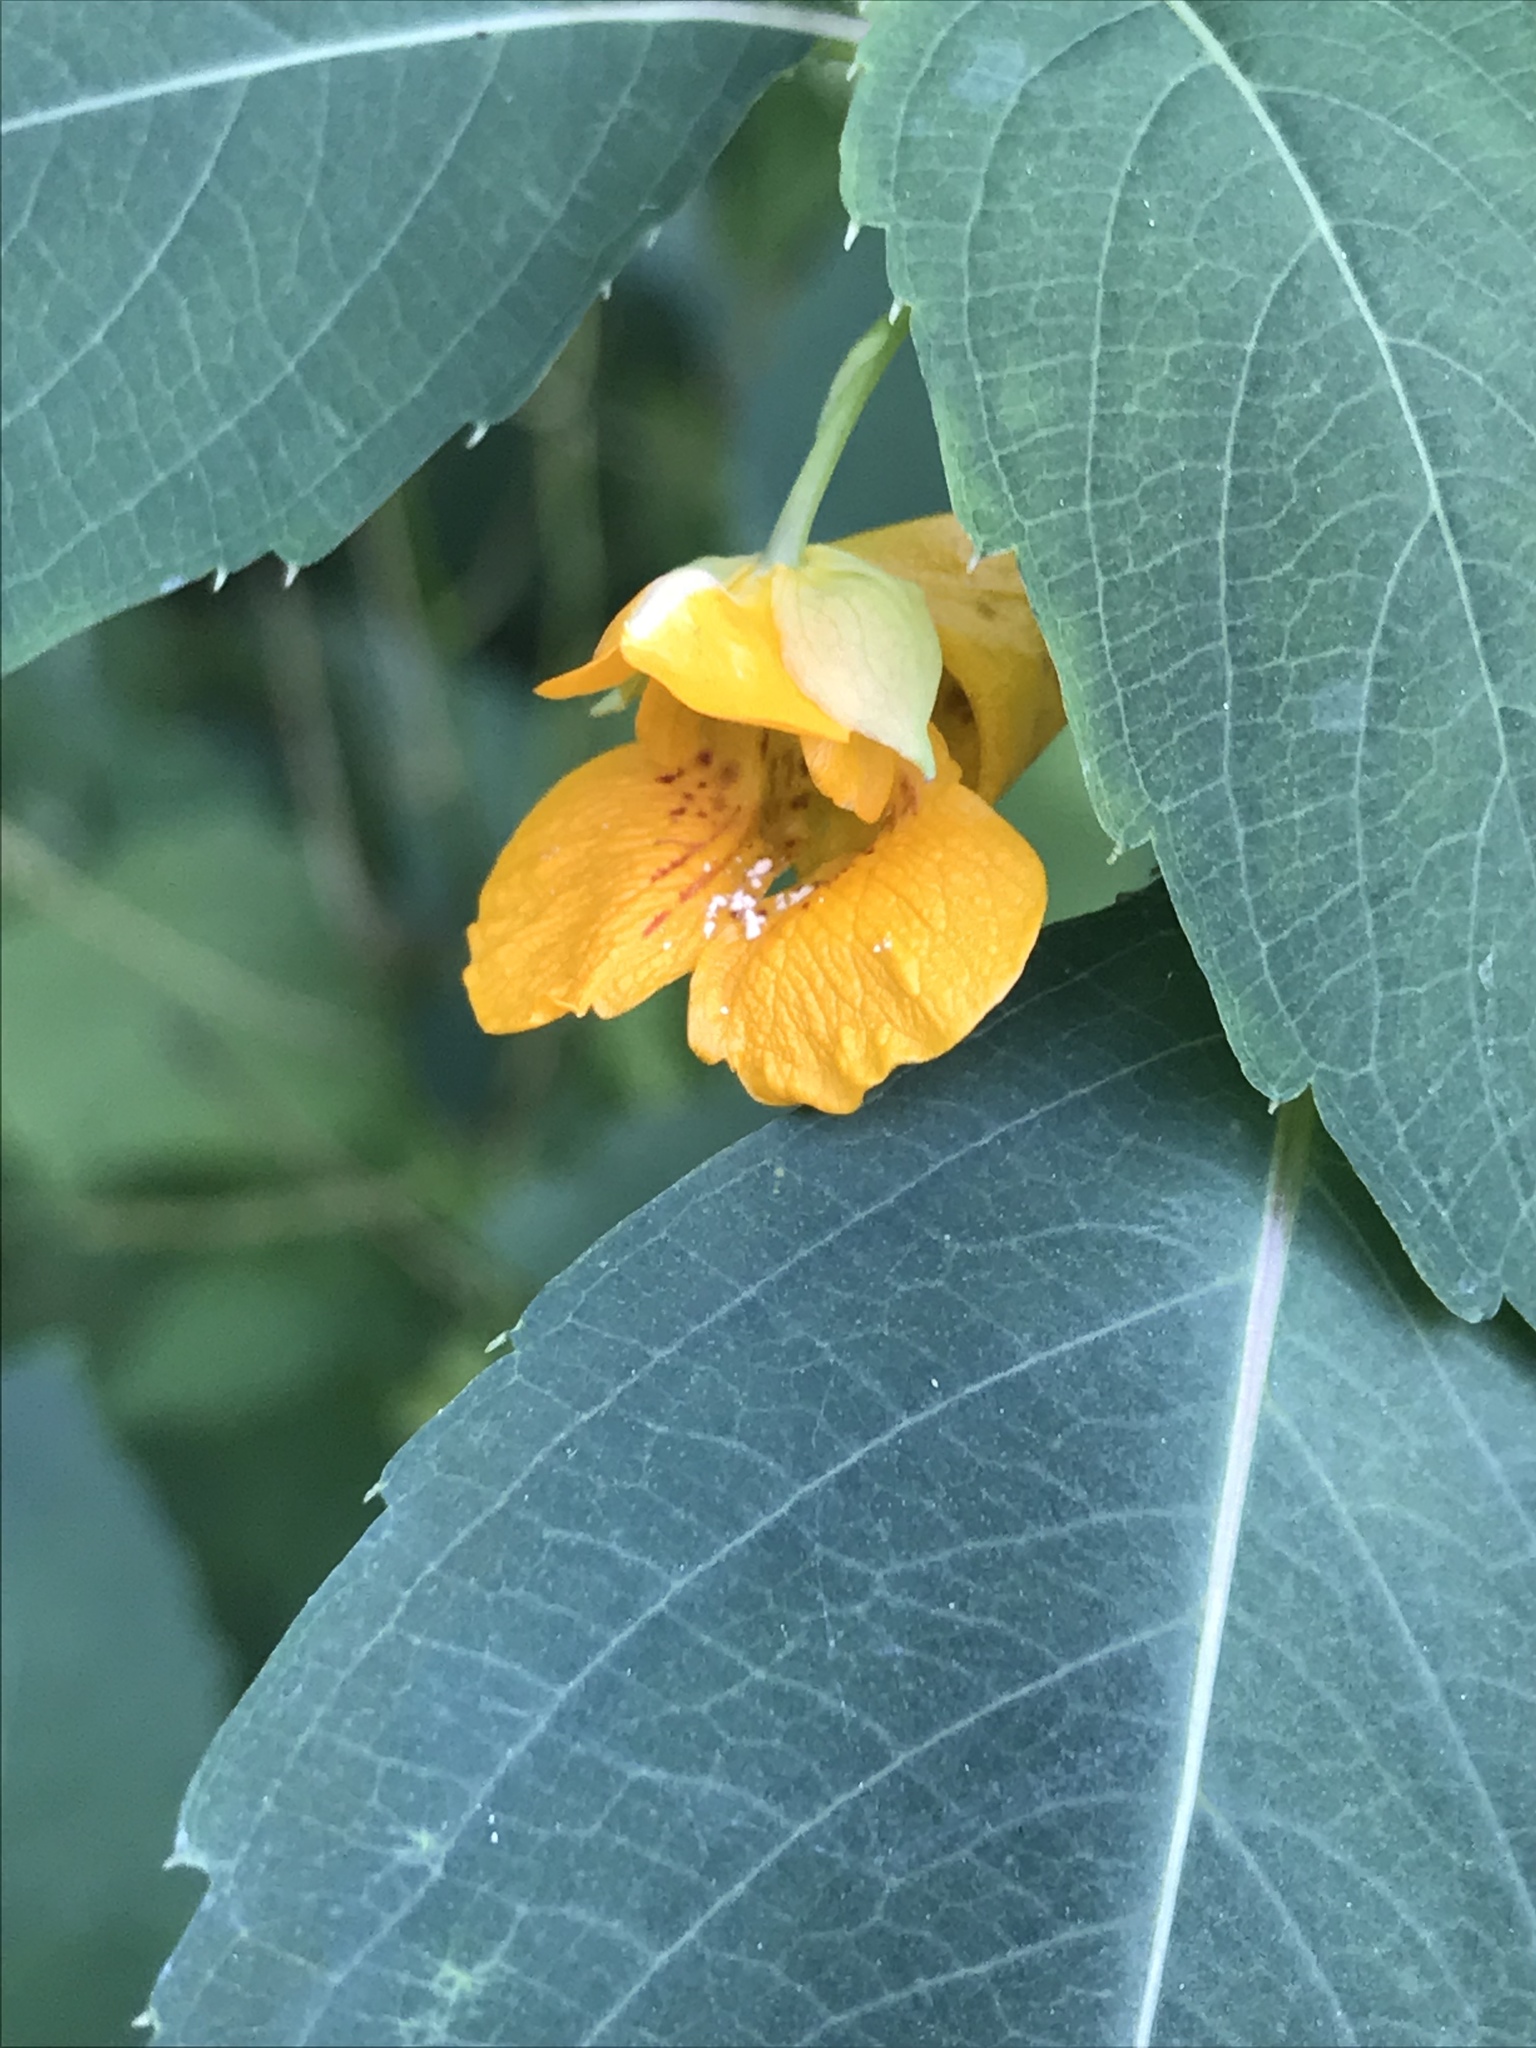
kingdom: Plantae
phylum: Tracheophyta
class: Magnoliopsida
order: Ericales
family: Balsaminaceae
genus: Impatiens
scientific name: Impatiens capensis
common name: Orange balsam
